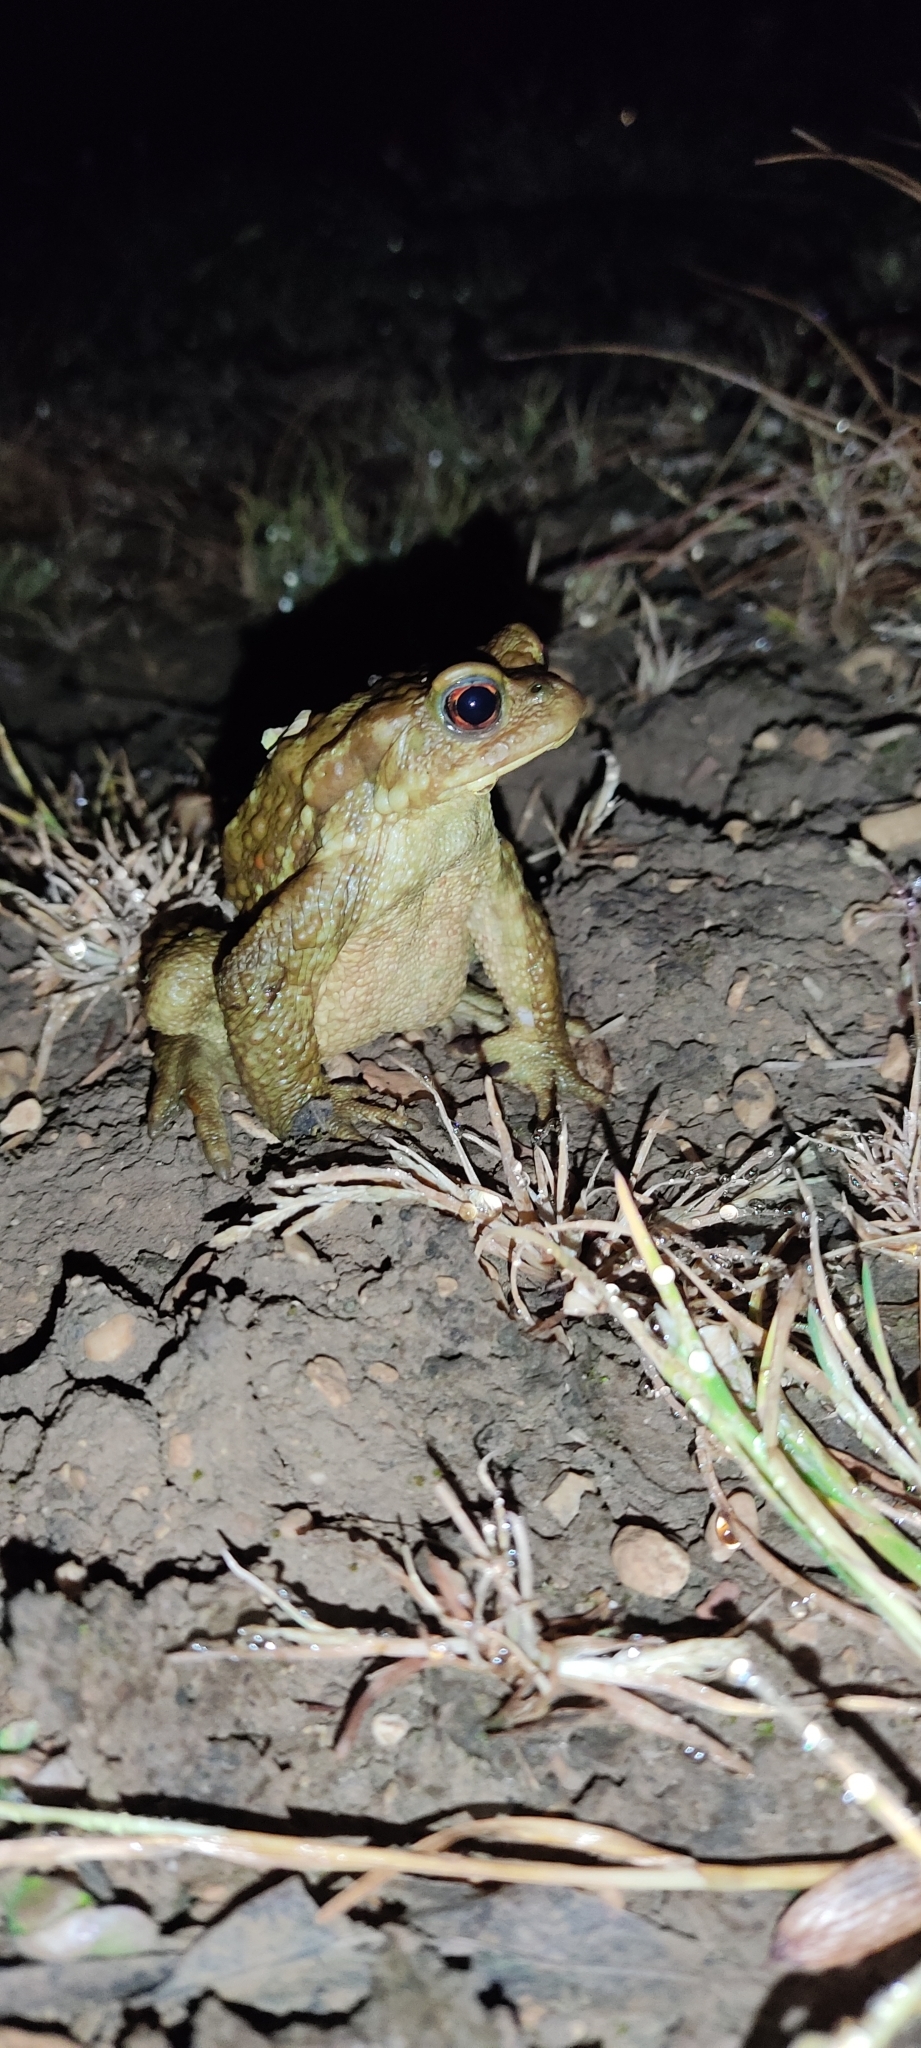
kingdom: Animalia
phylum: Chordata
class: Amphibia
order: Anura
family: Bufonidae
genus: Bufo
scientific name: Bufo spinosus
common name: Western common toad
